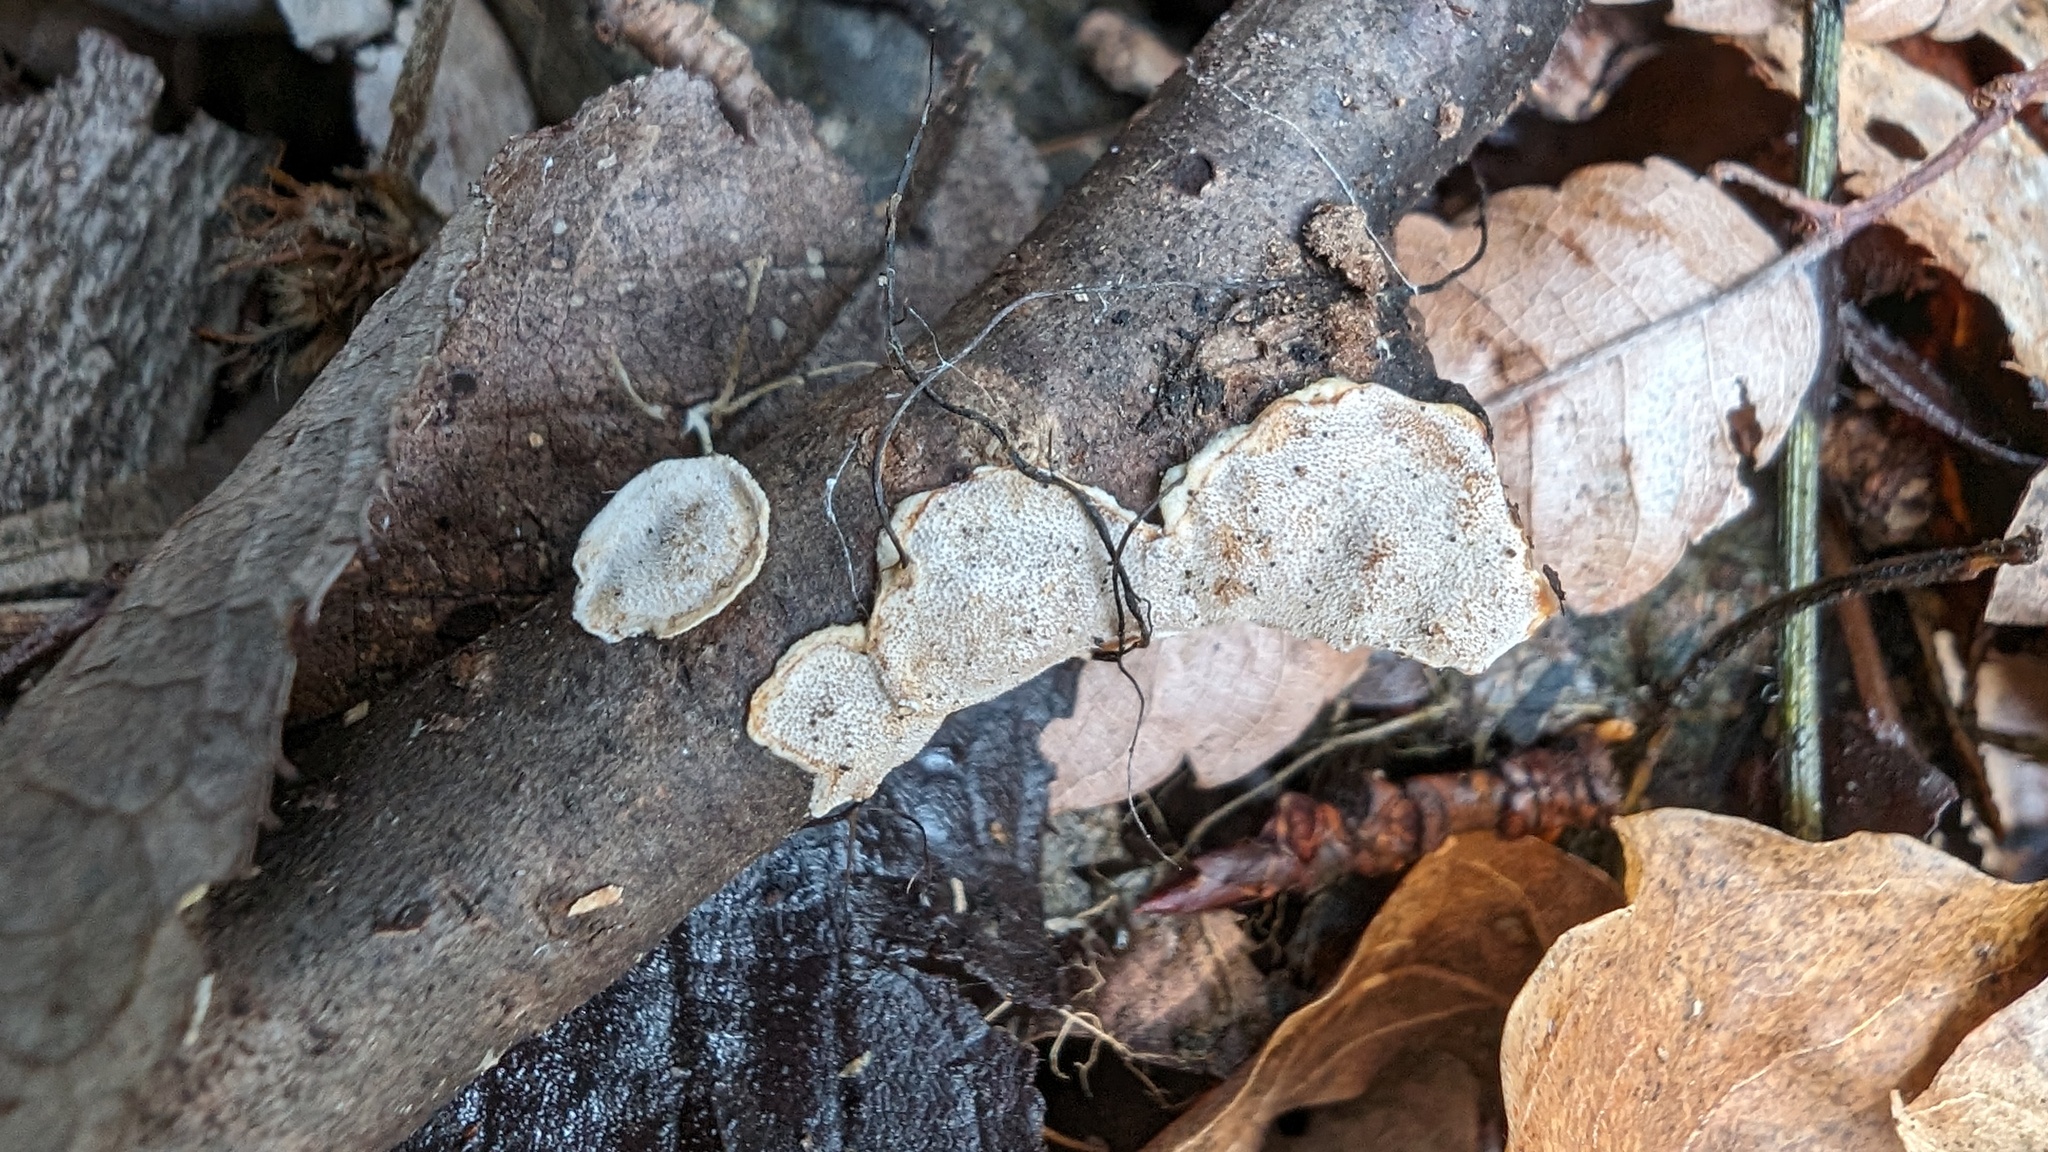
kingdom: Fungi
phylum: Basidiomycota
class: Agaricomycetes
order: Auriculariales
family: Auriculariaceae
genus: Heterochaete
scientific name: Heterochaete delicata
